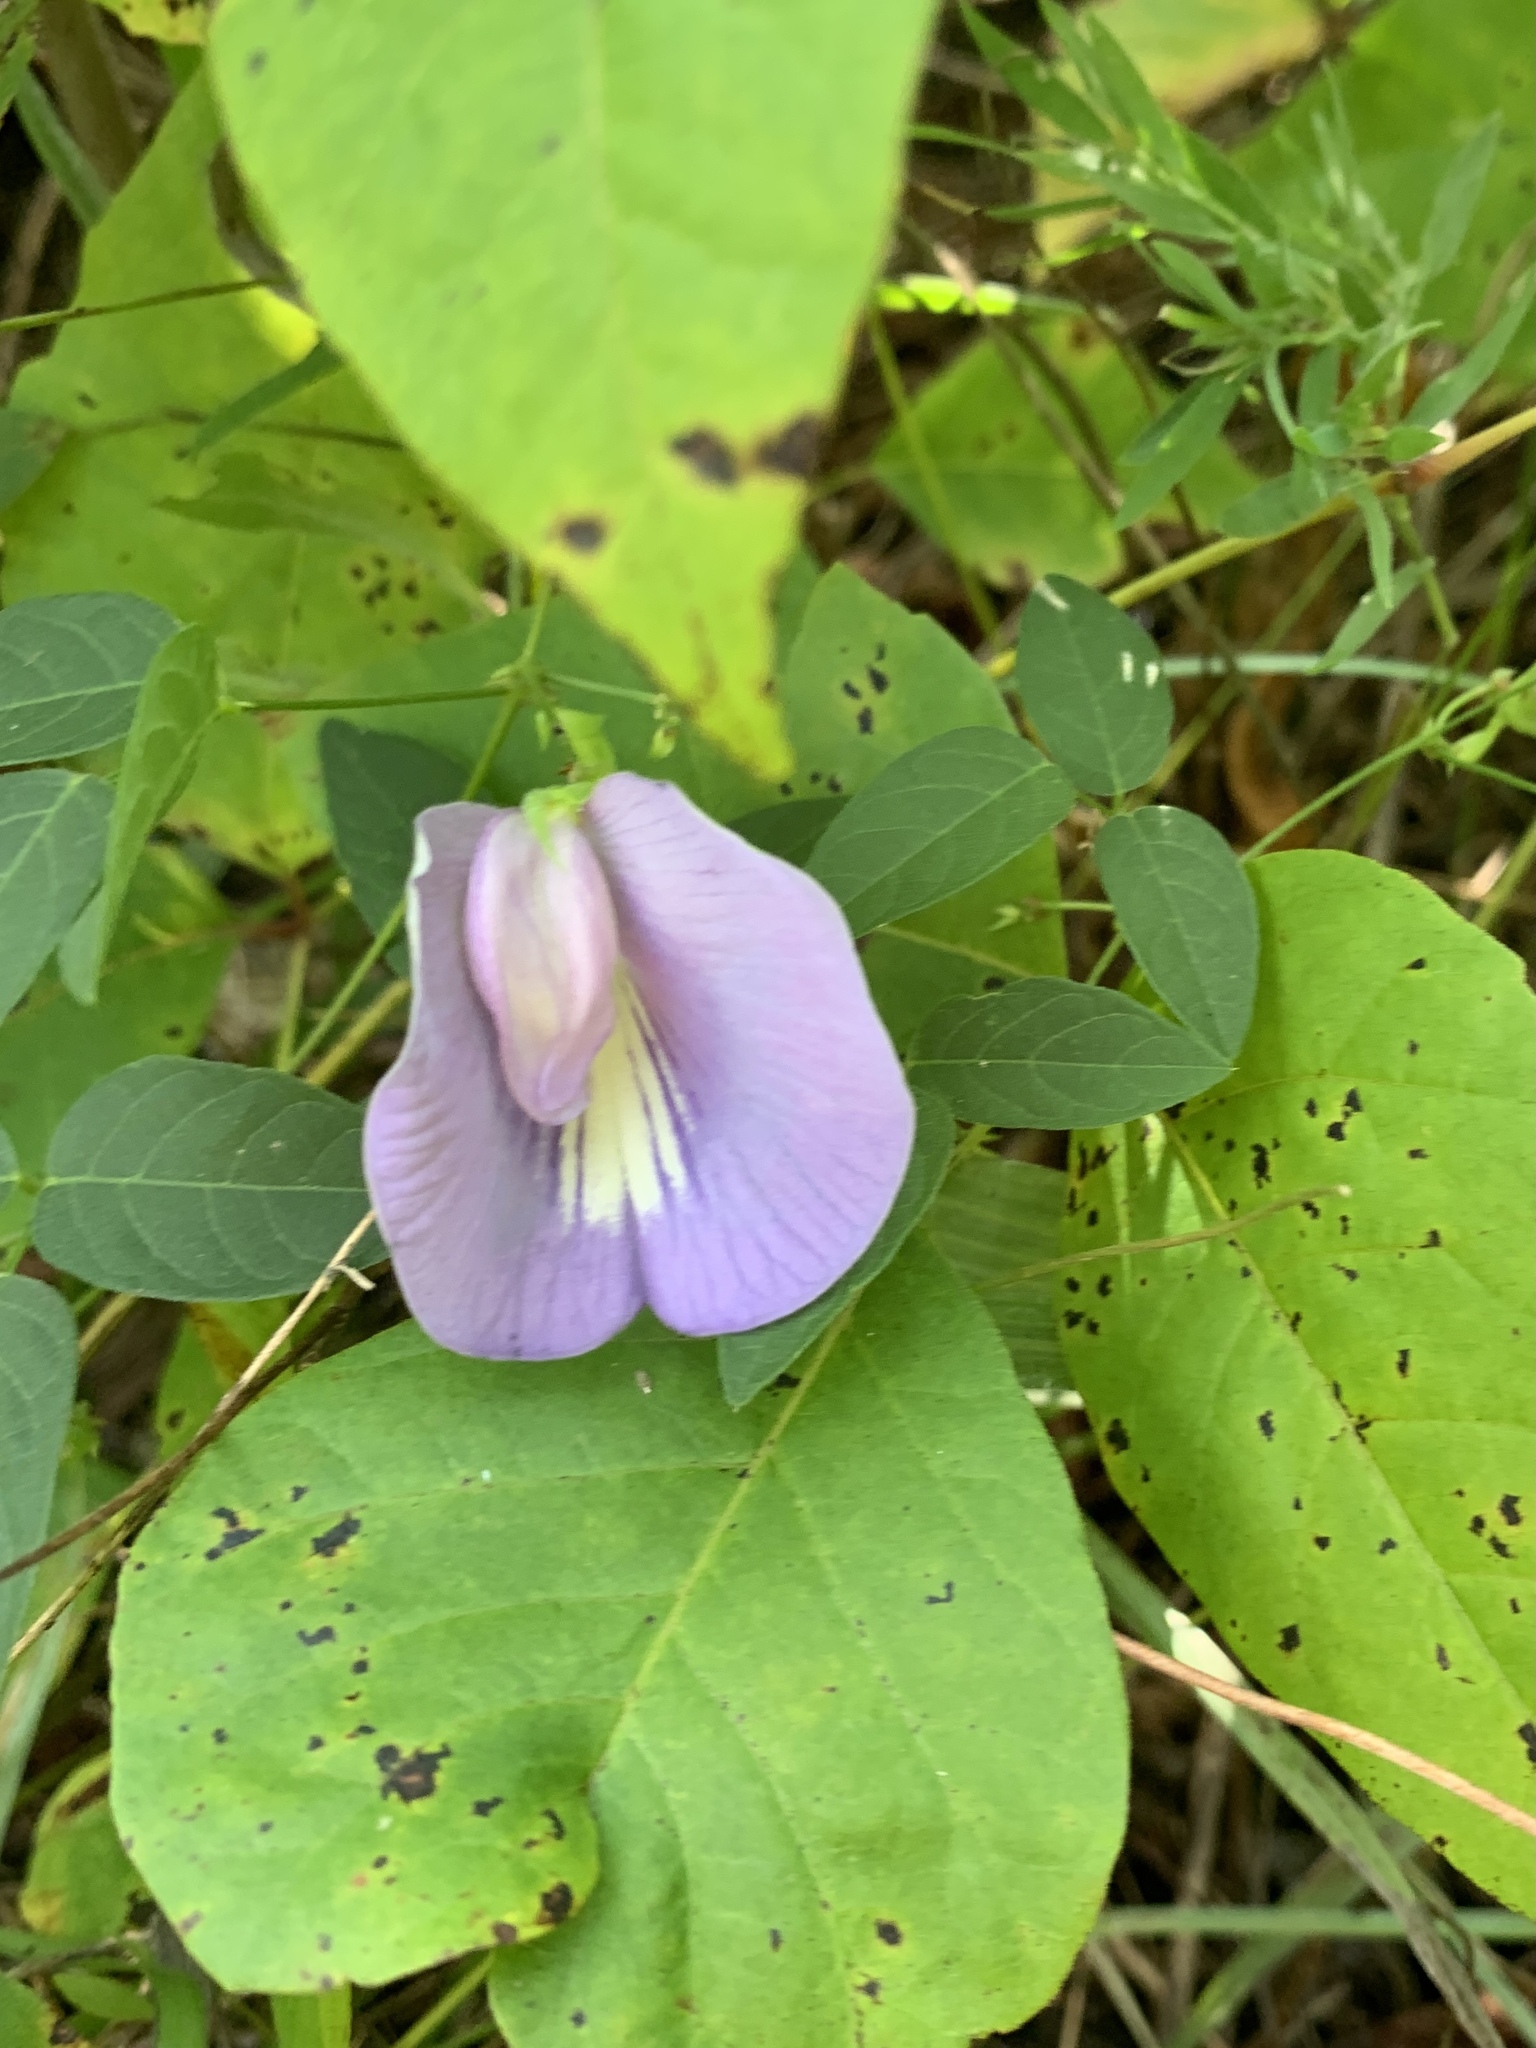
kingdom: Plantae
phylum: Tracheophyta
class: Magnoliopsida
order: Fabales
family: Fabaceae
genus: Centrosema
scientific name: Centrosema virginianum
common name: Butterfly-pea
